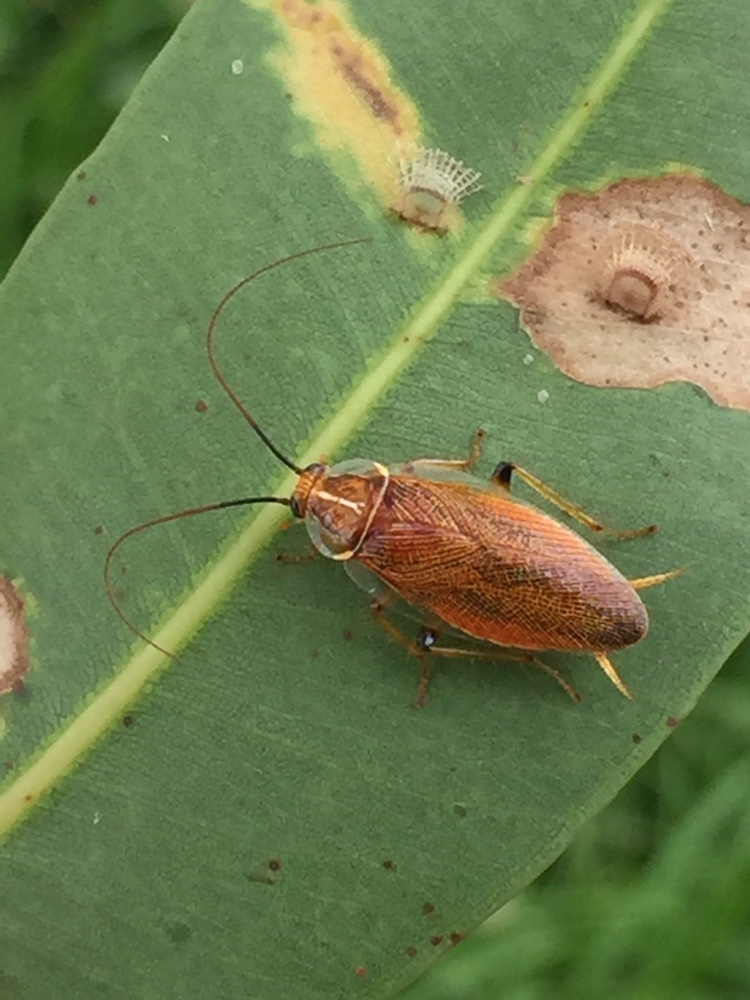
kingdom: Animalia
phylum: Arthropoda
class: Insecta
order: Blattodea
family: Ectobiidae
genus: Balta
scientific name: Balta bicolor
